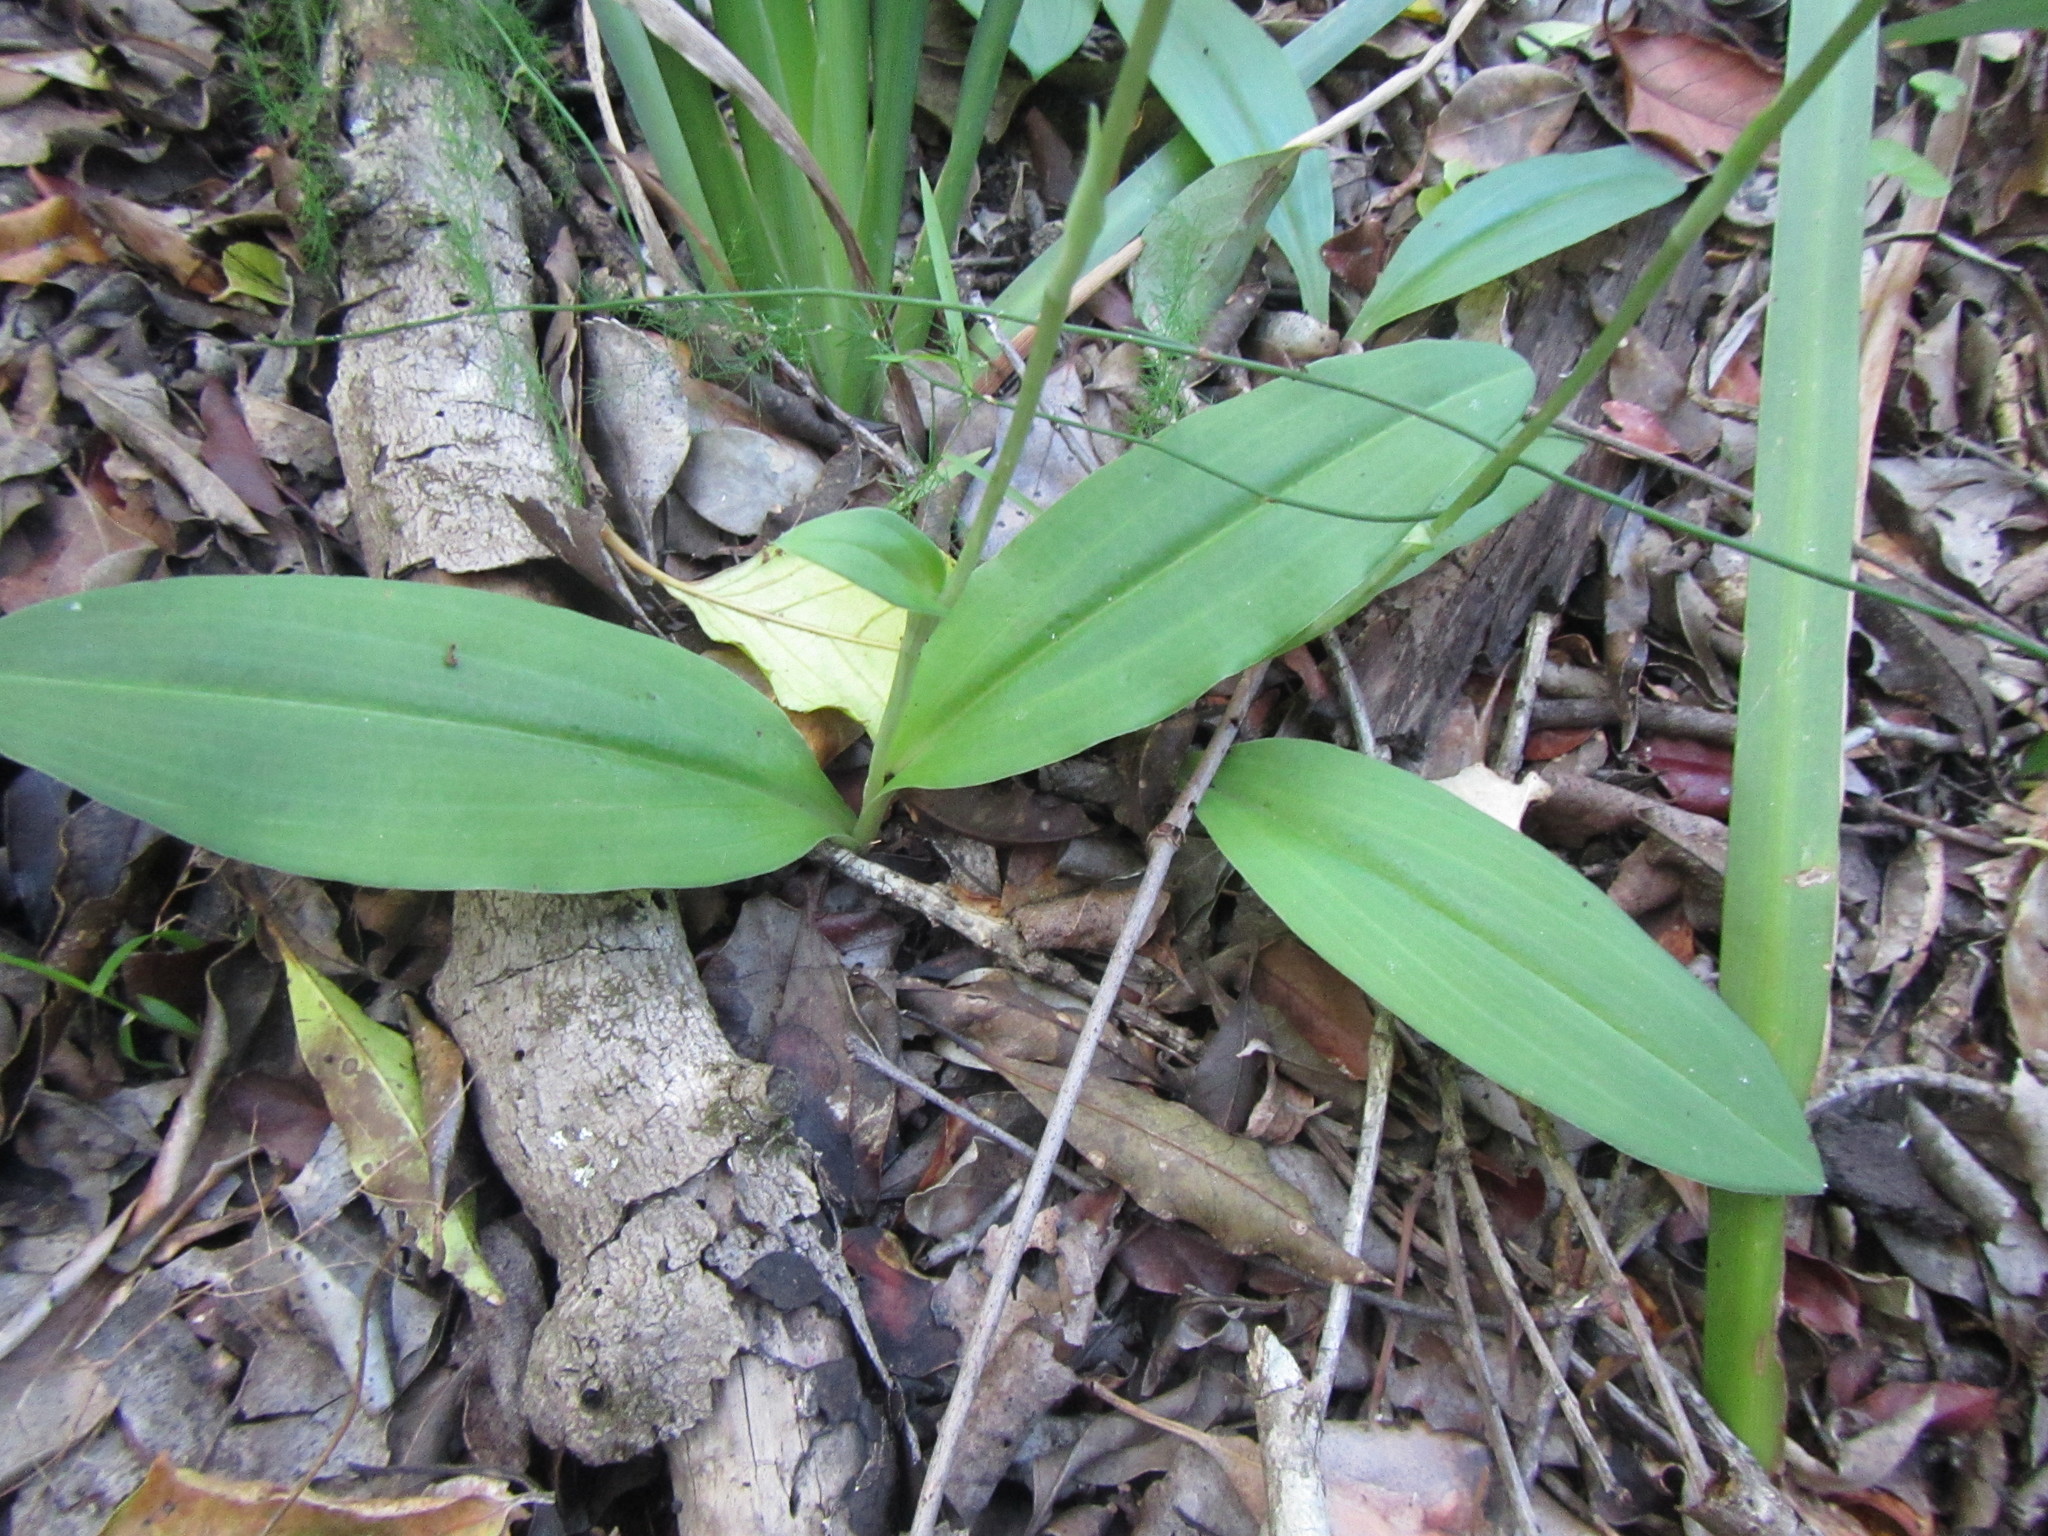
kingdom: Plantae
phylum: Tracheophyta
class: Liliopsida
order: Asparagales
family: Orchidaceae
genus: Habenaria
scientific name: Habenaria arenaria
